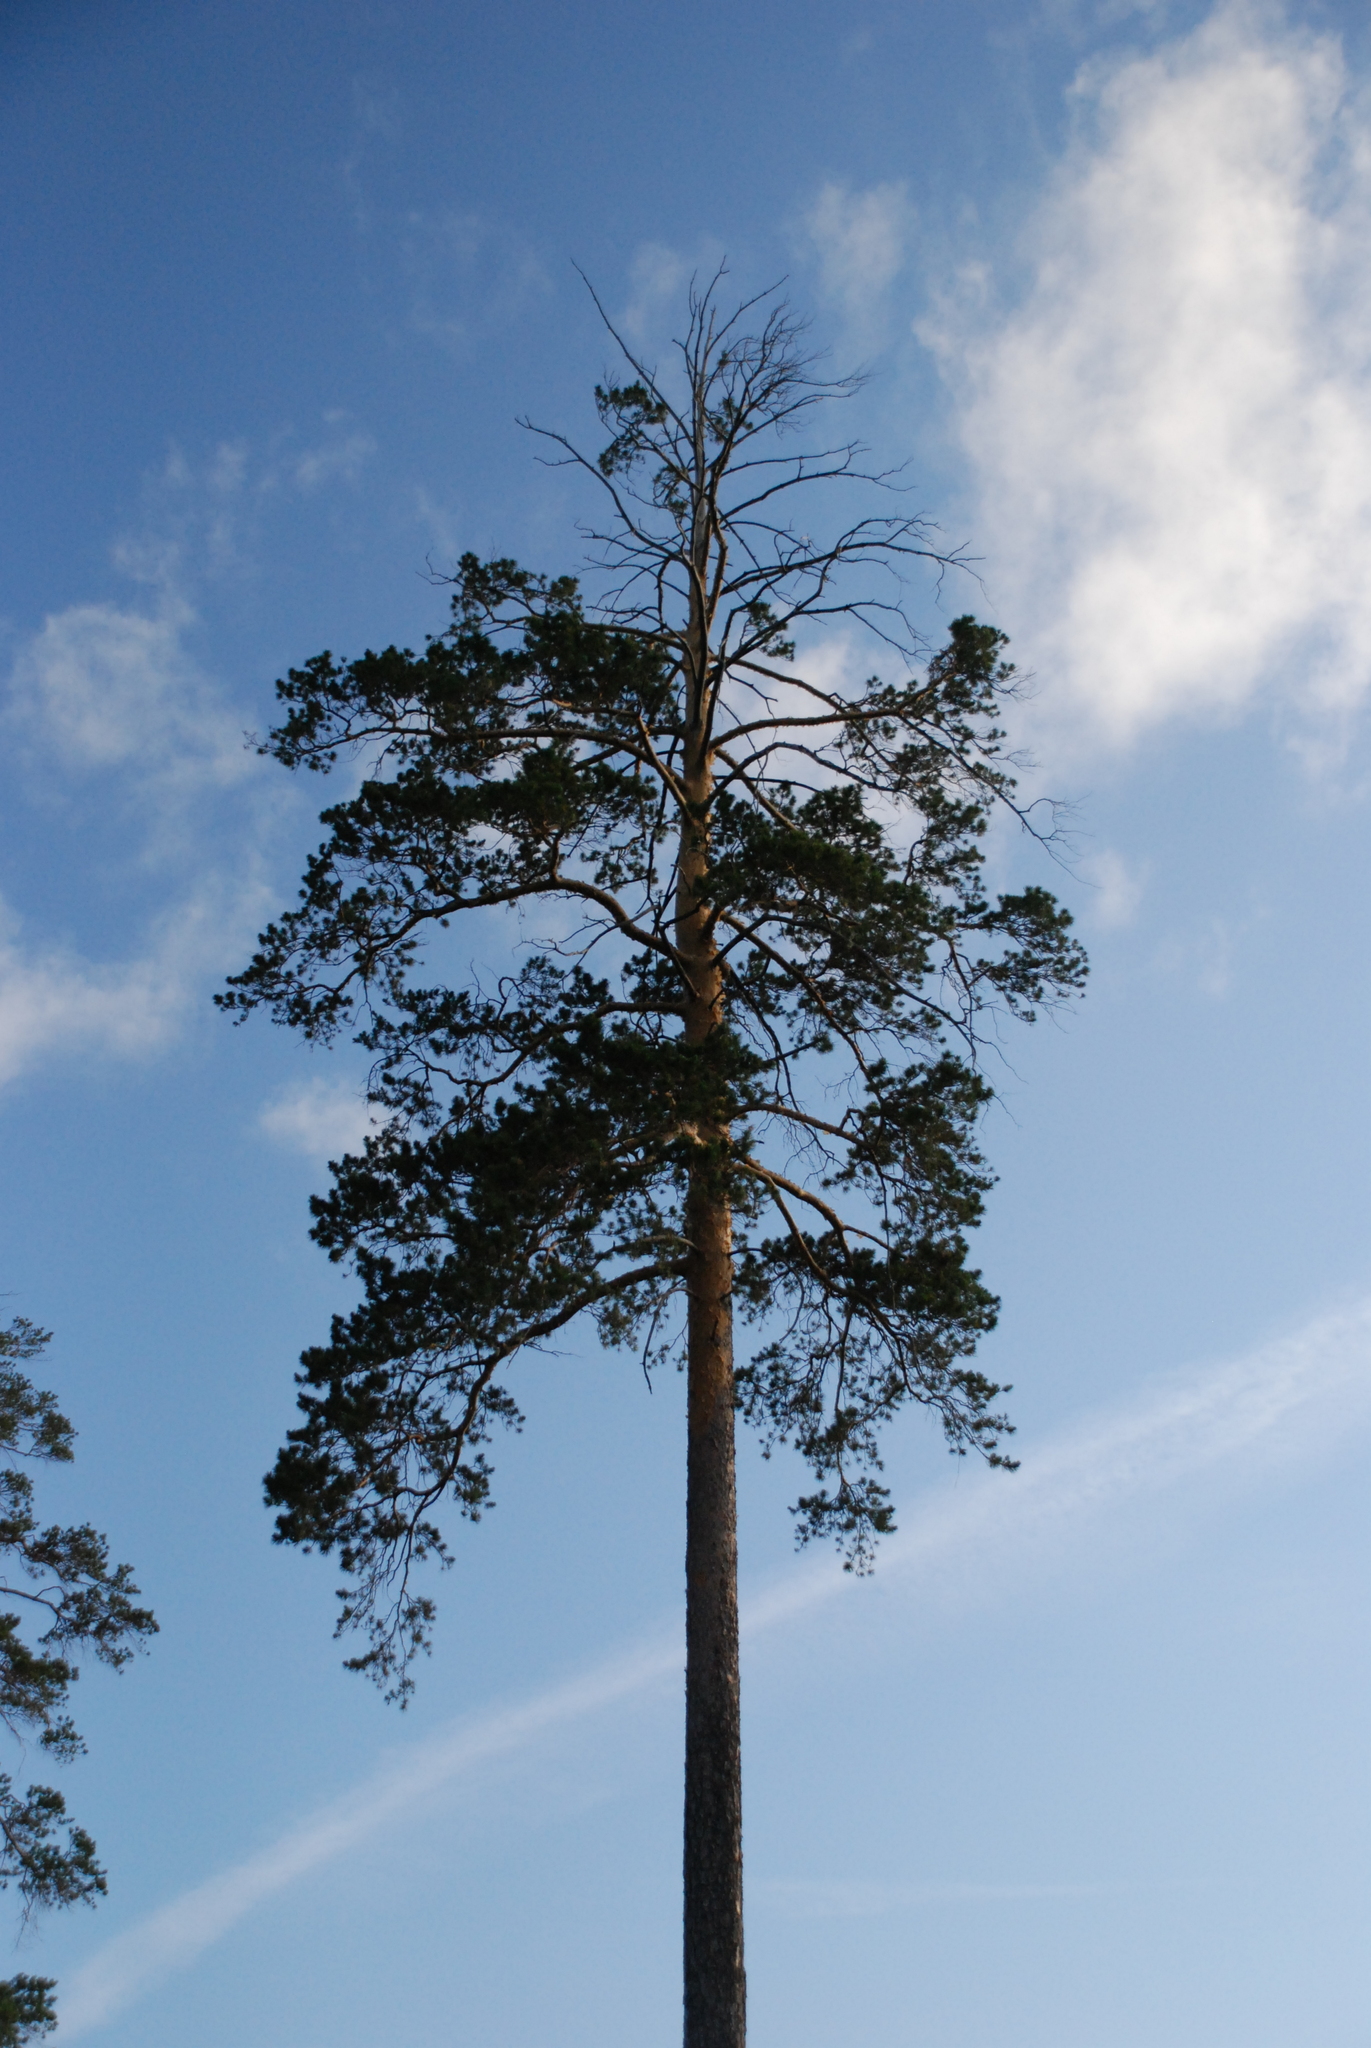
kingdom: Plantae
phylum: Tracheophyta
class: Pinopsida
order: Pinales
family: Pinaceae
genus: Pinus
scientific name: Pinus sylvestris
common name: Scots pine
